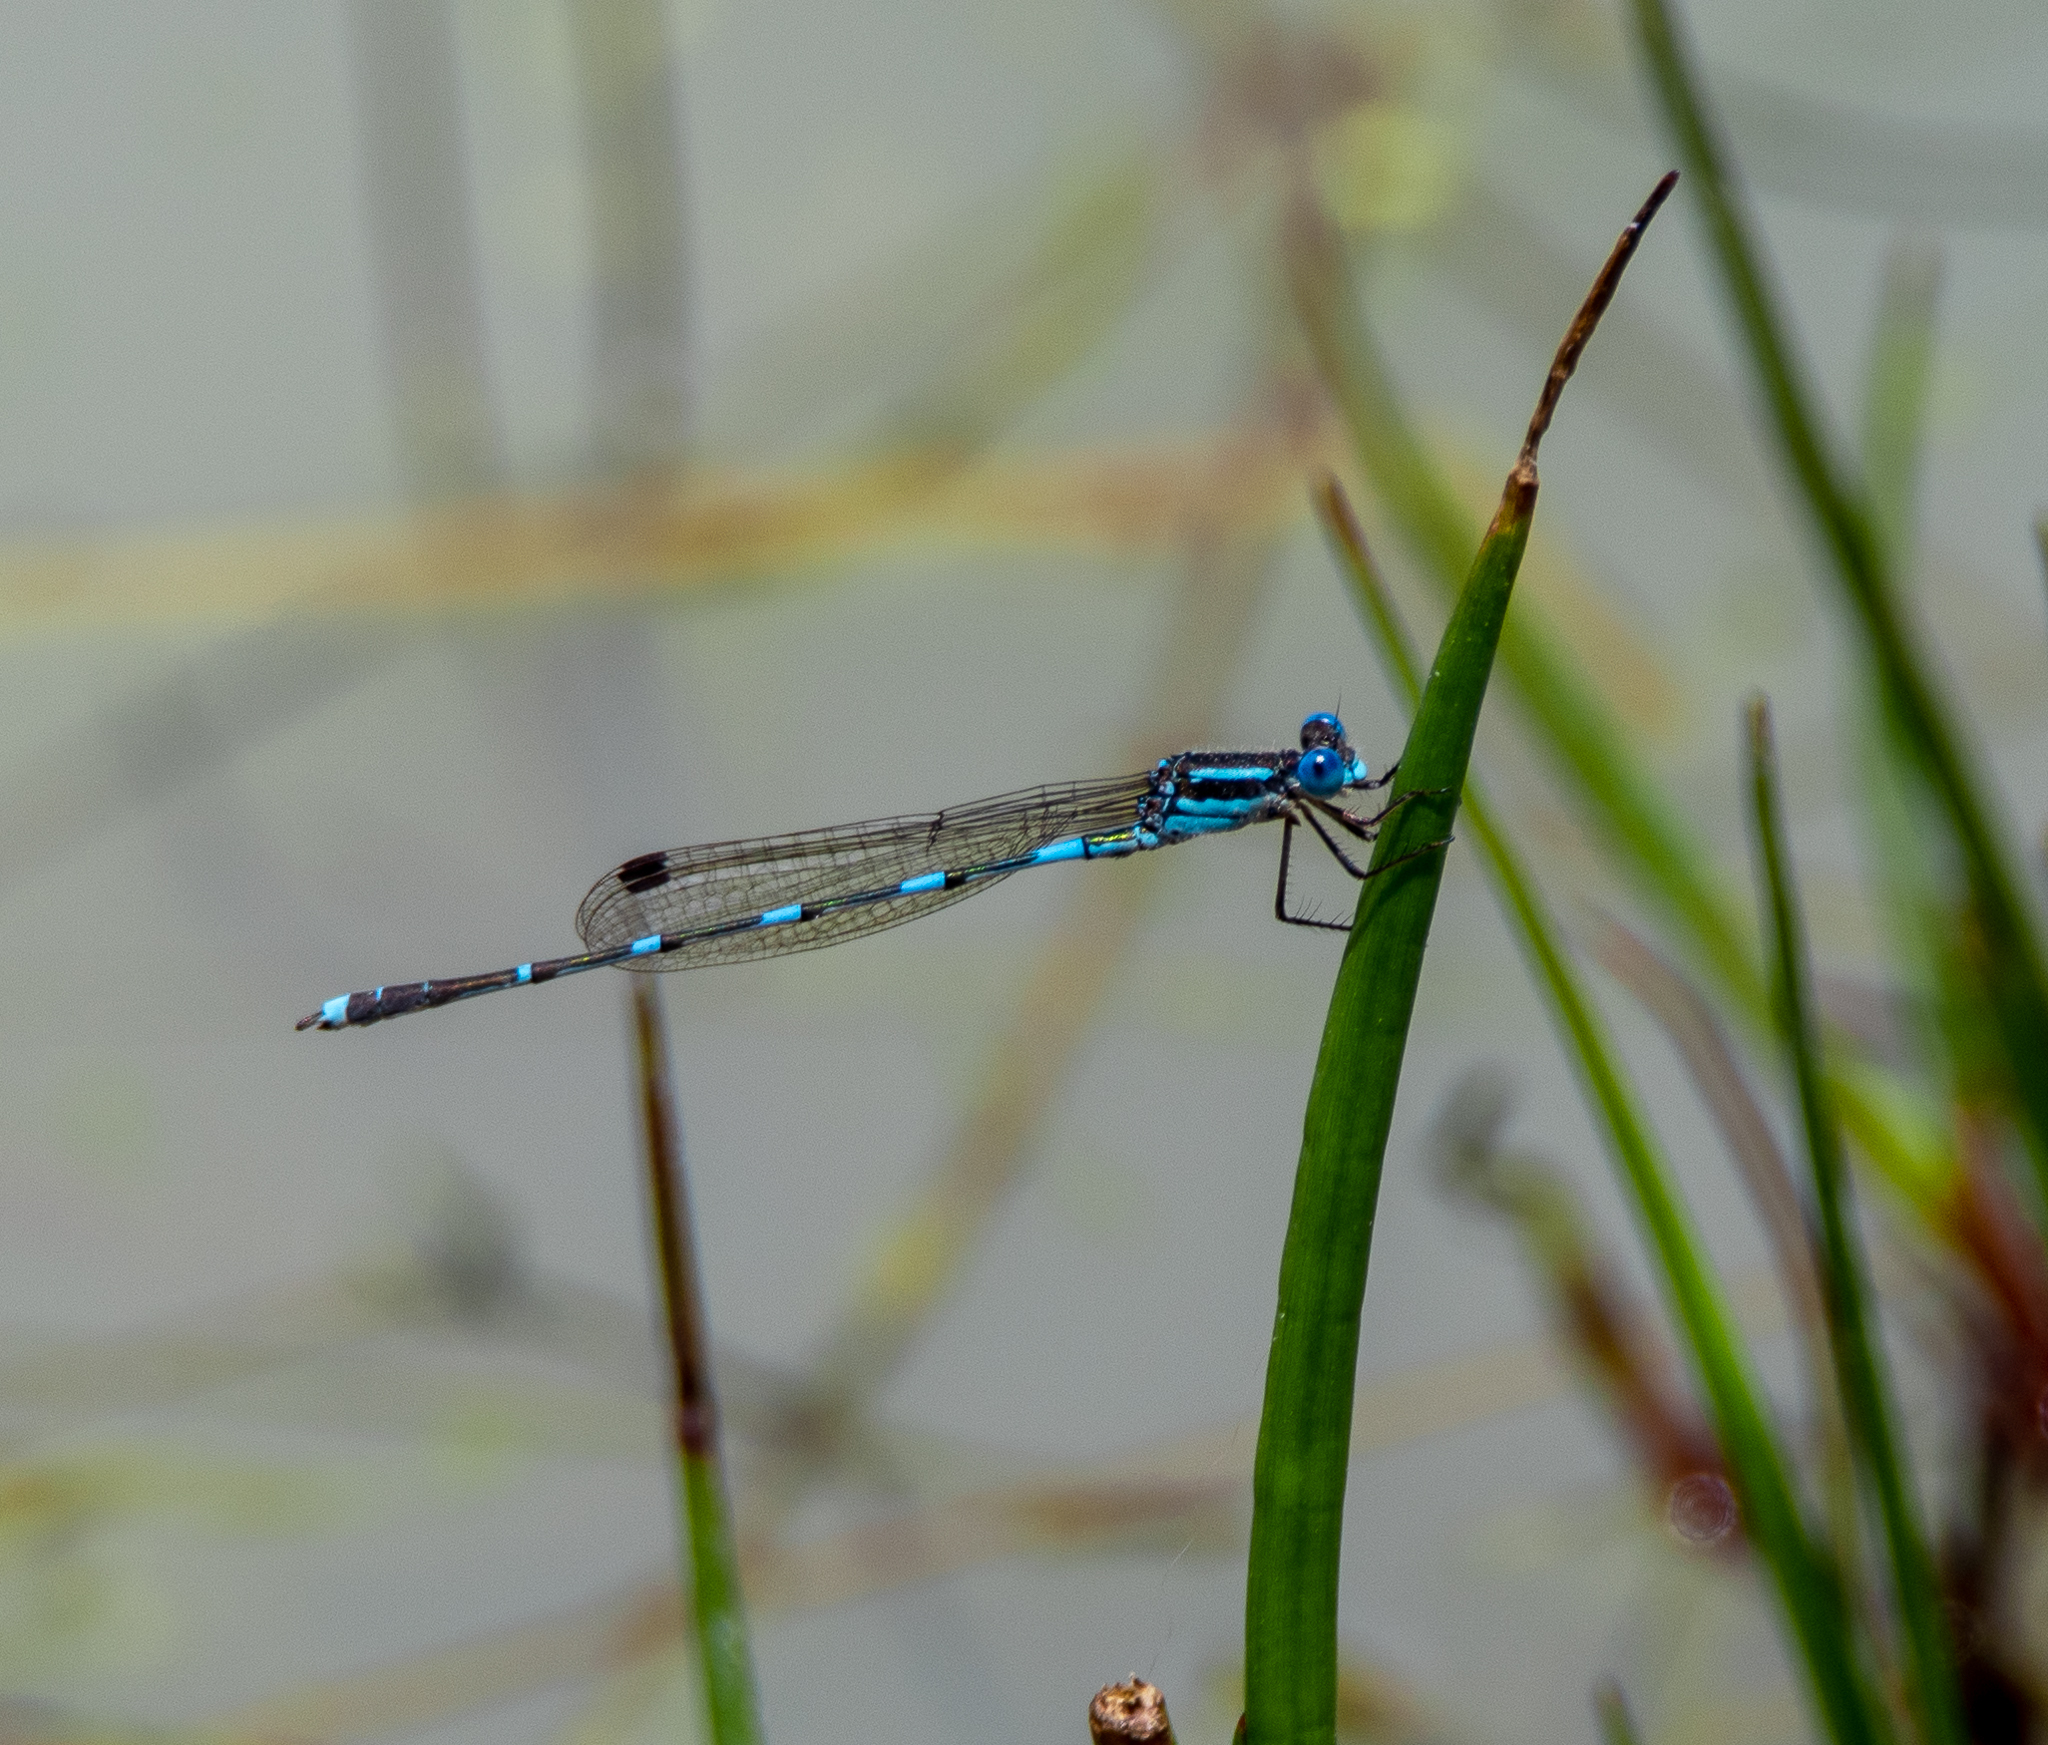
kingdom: Animalia
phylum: Arthropoda
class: Insecta
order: Odonata
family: Lestidae
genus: Austrolestes
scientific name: Austrolestes leda
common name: Wandering ringtail
